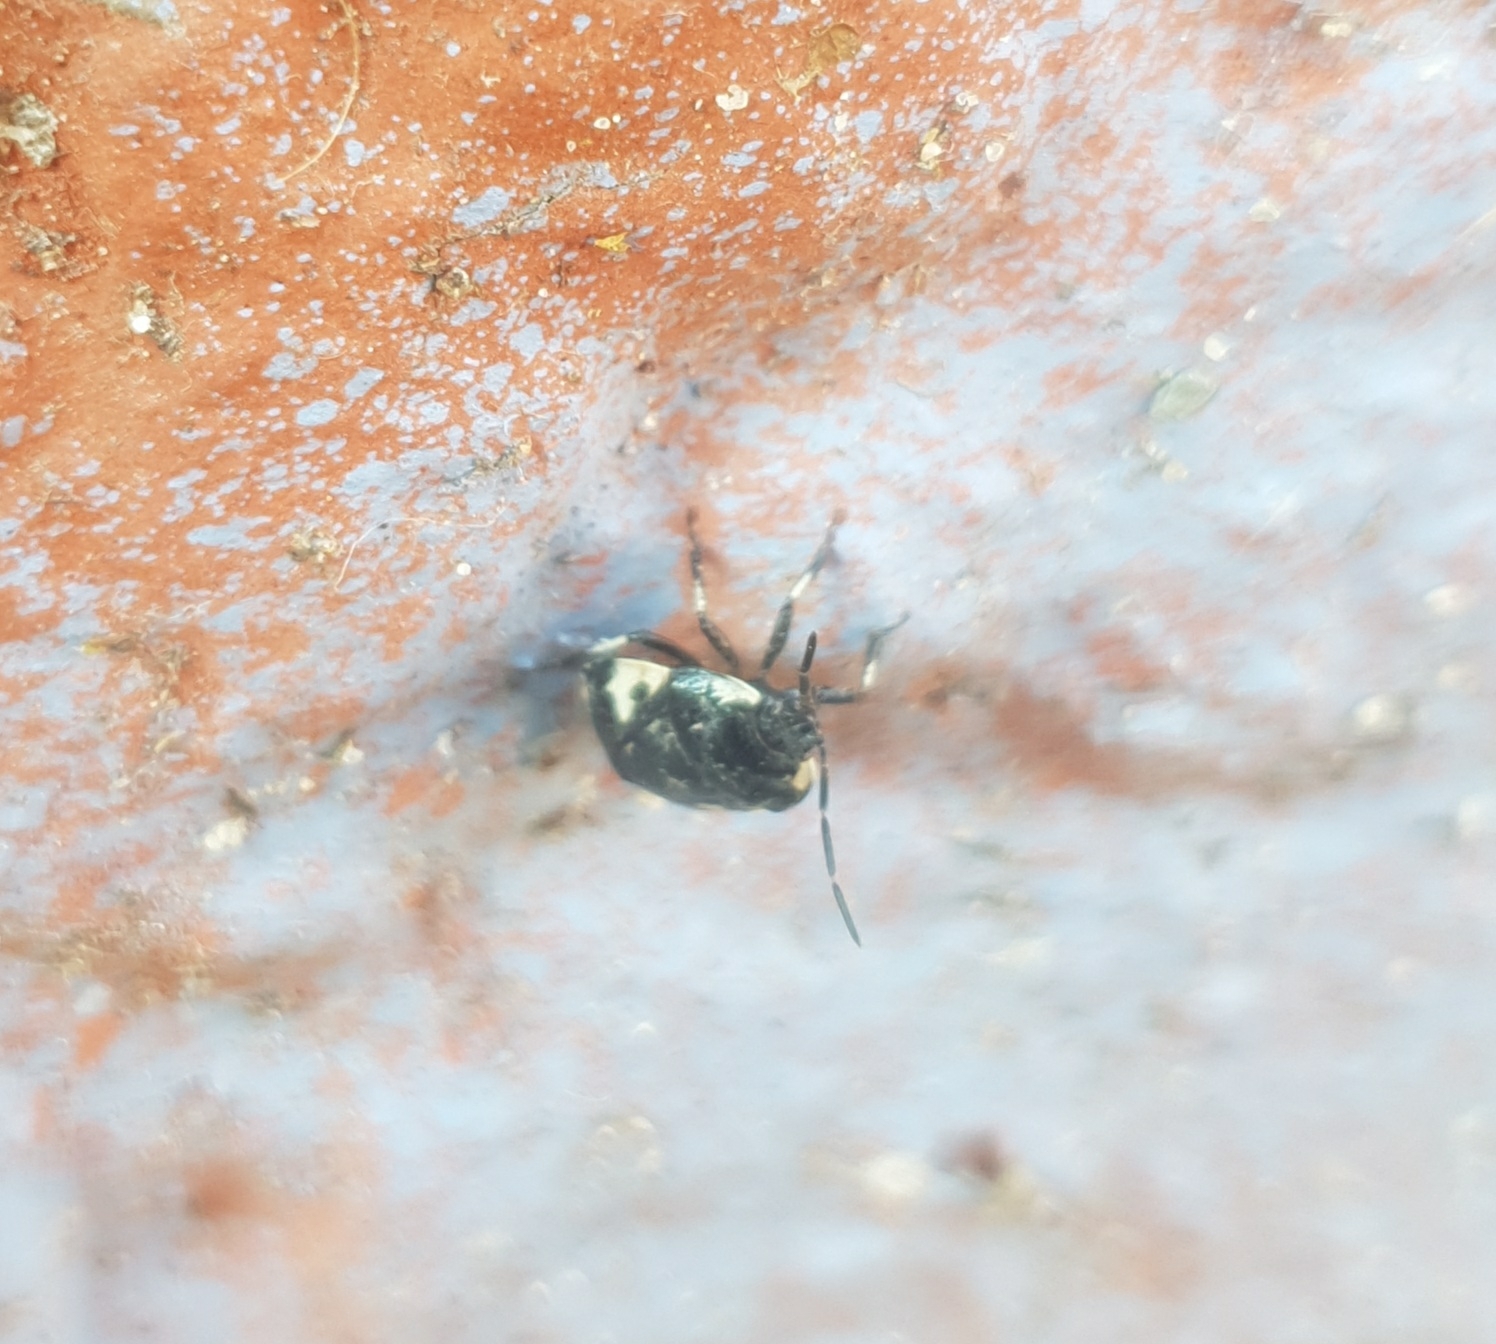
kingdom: Animalia
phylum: Arthropoda
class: Insecta
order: Hemiptera
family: Cydnidae
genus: Tritomegas
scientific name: Tritomegas bicolor
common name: Pied shieldbug
